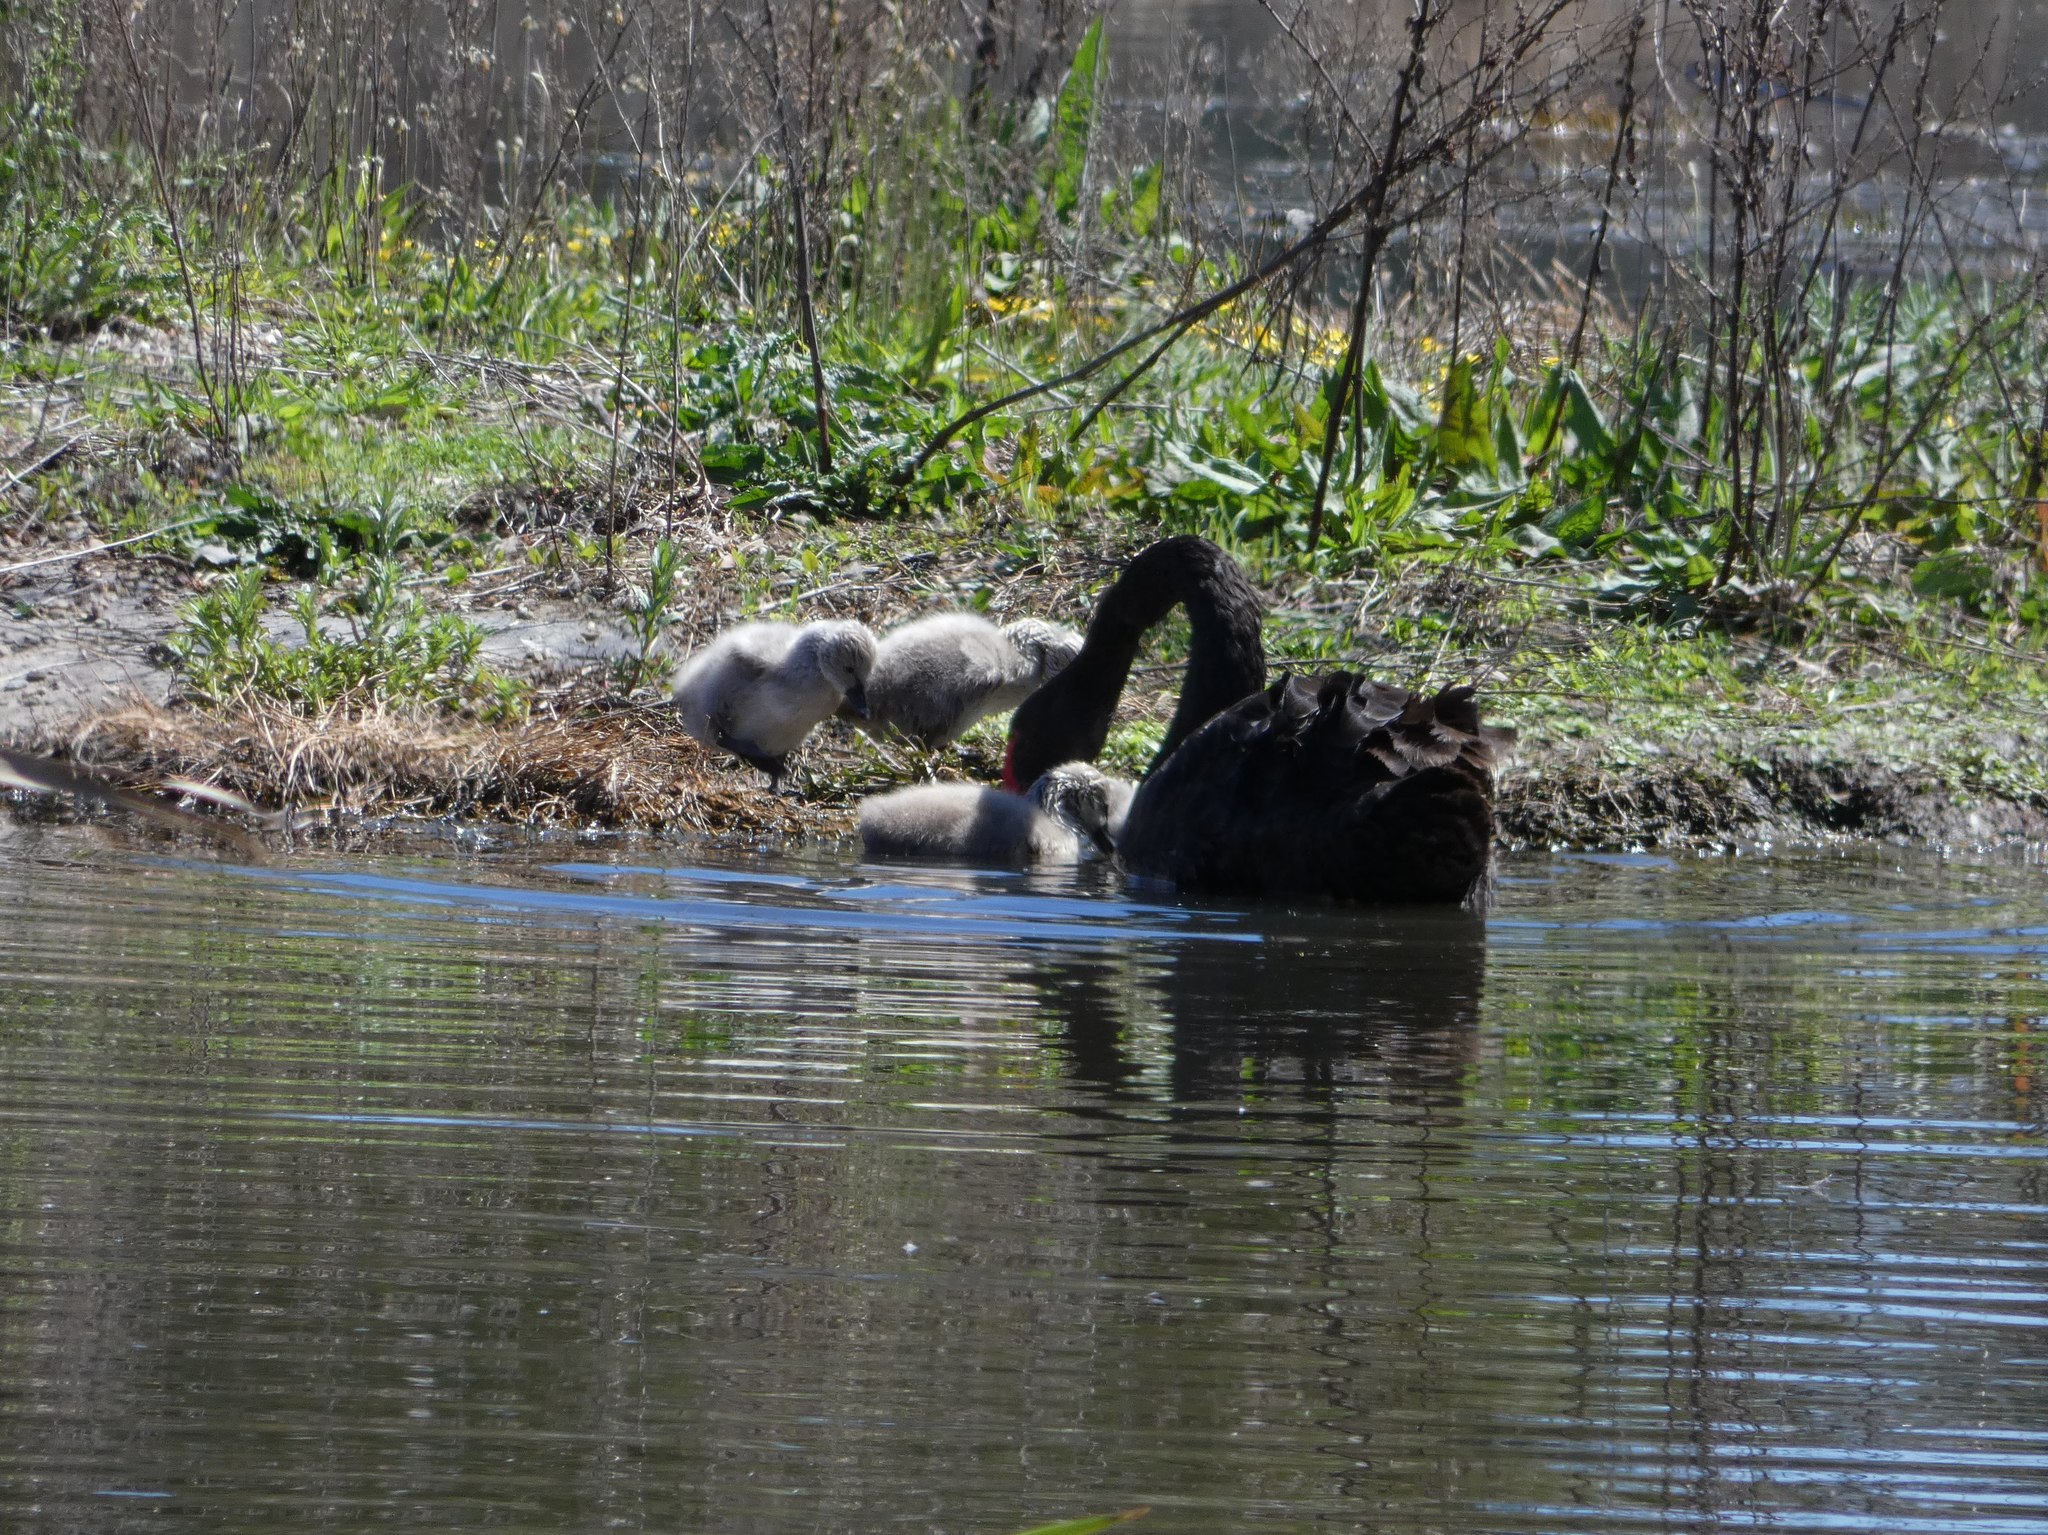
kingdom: Animalia
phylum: Chordata
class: Aves
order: Anseriformes
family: Anatidae
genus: Cygnus
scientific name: Cygnus atratus
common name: Black swan
